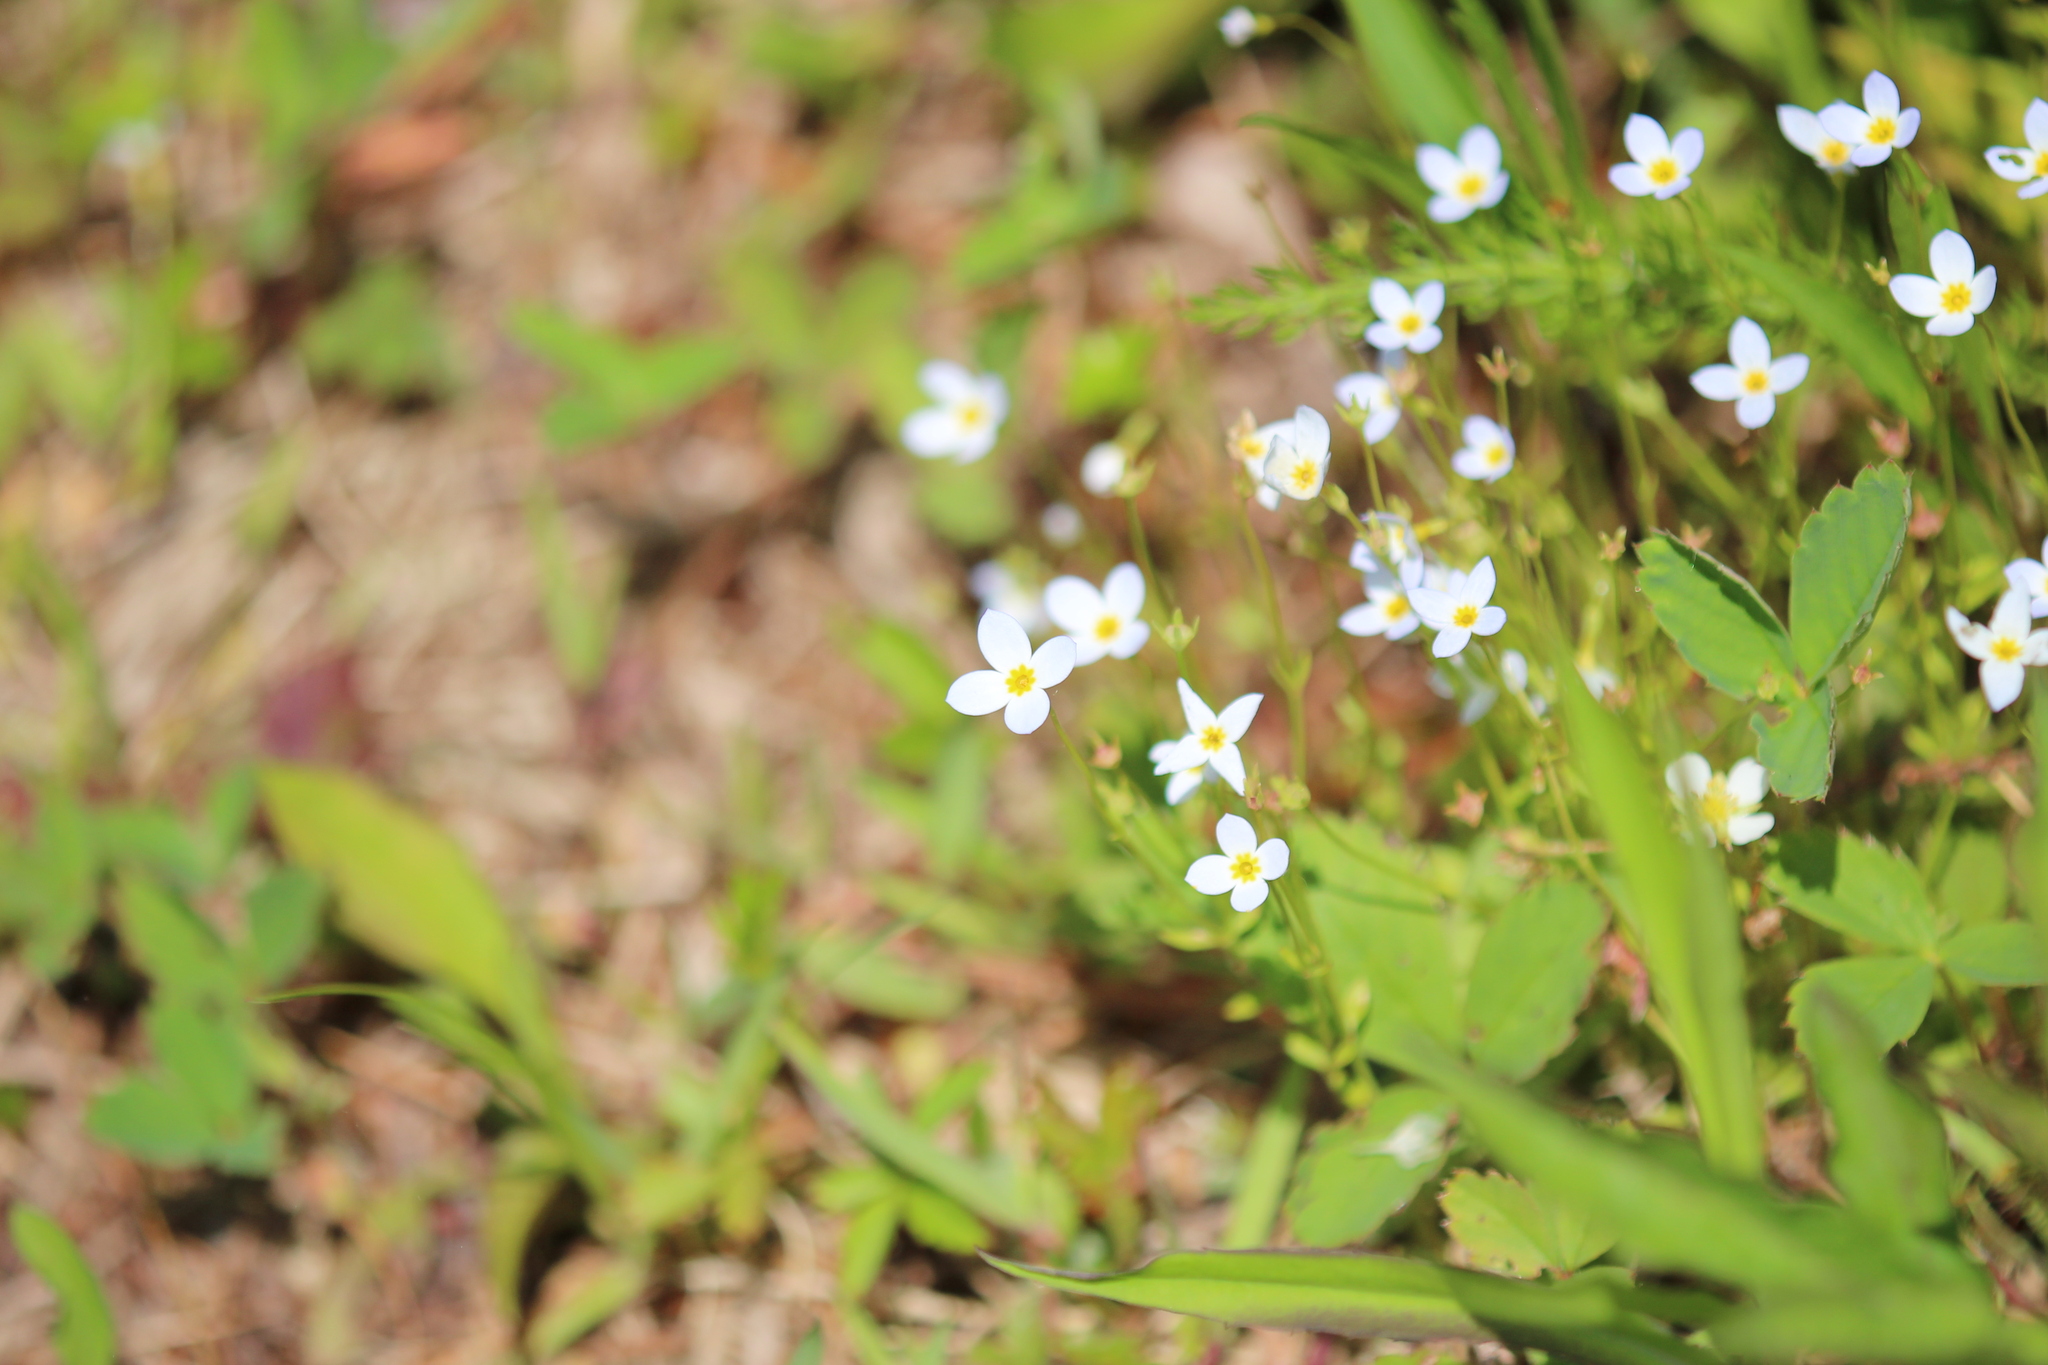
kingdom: Plantae
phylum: Tracheophyta
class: Magnoliopsida
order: Gentianales
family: Rubiaceae
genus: Houstonia
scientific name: Houstonia caerulea
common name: Bluets
